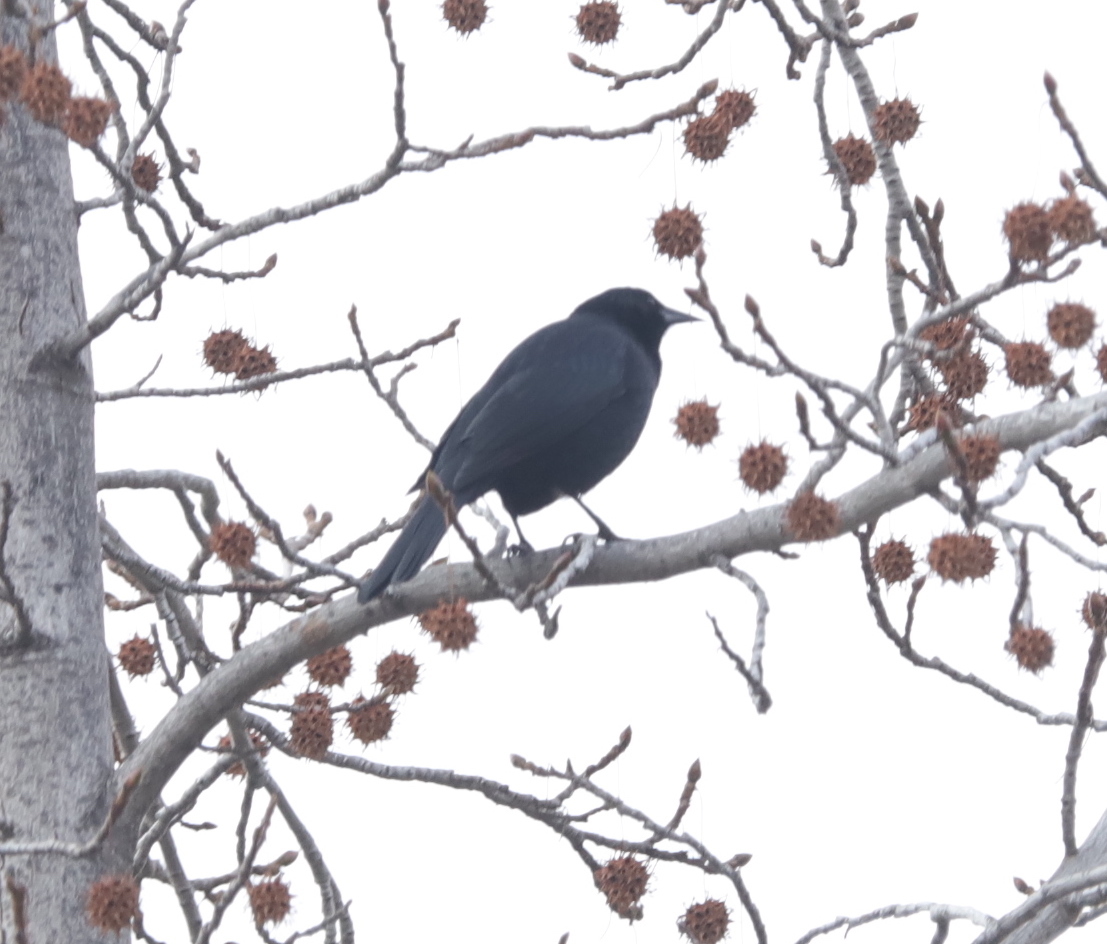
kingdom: Animalia
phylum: Chordata
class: Aves
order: Passeriformes
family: Icteridae
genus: Curaeus
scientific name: Curaeus curaeus
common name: Austral blackbird
